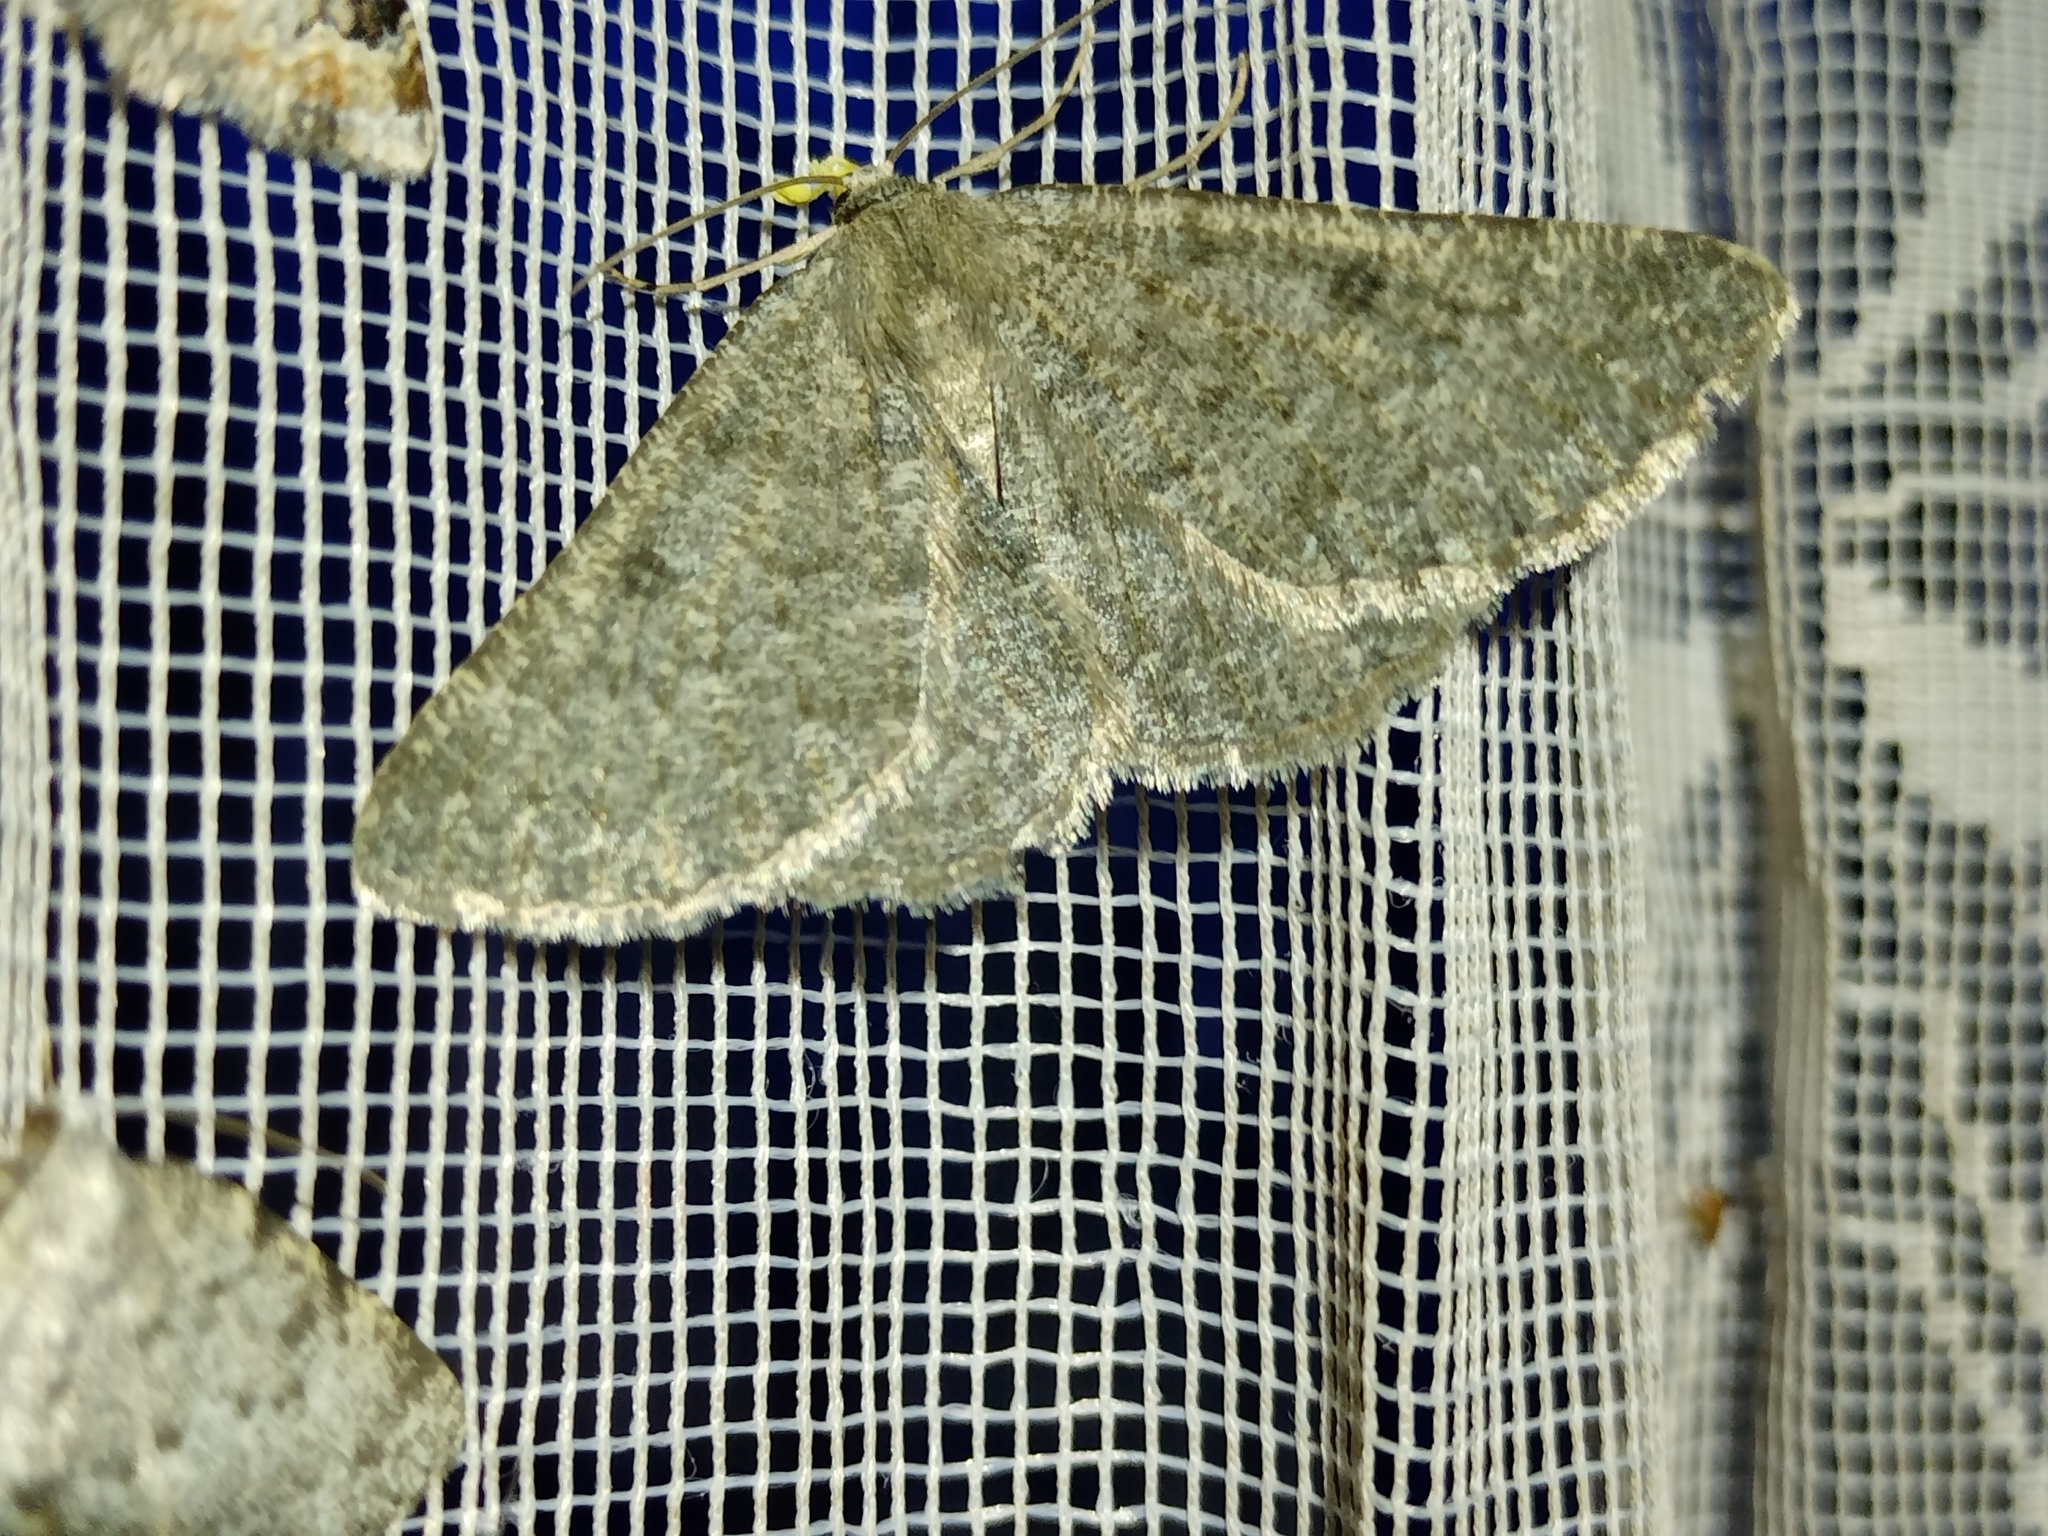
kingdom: Animalia
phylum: Arthropoda
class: Insecta
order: Lepidoptera
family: Geometridae
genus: Gnophos
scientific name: Gnophos obfuscata
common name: Scottish annulet
